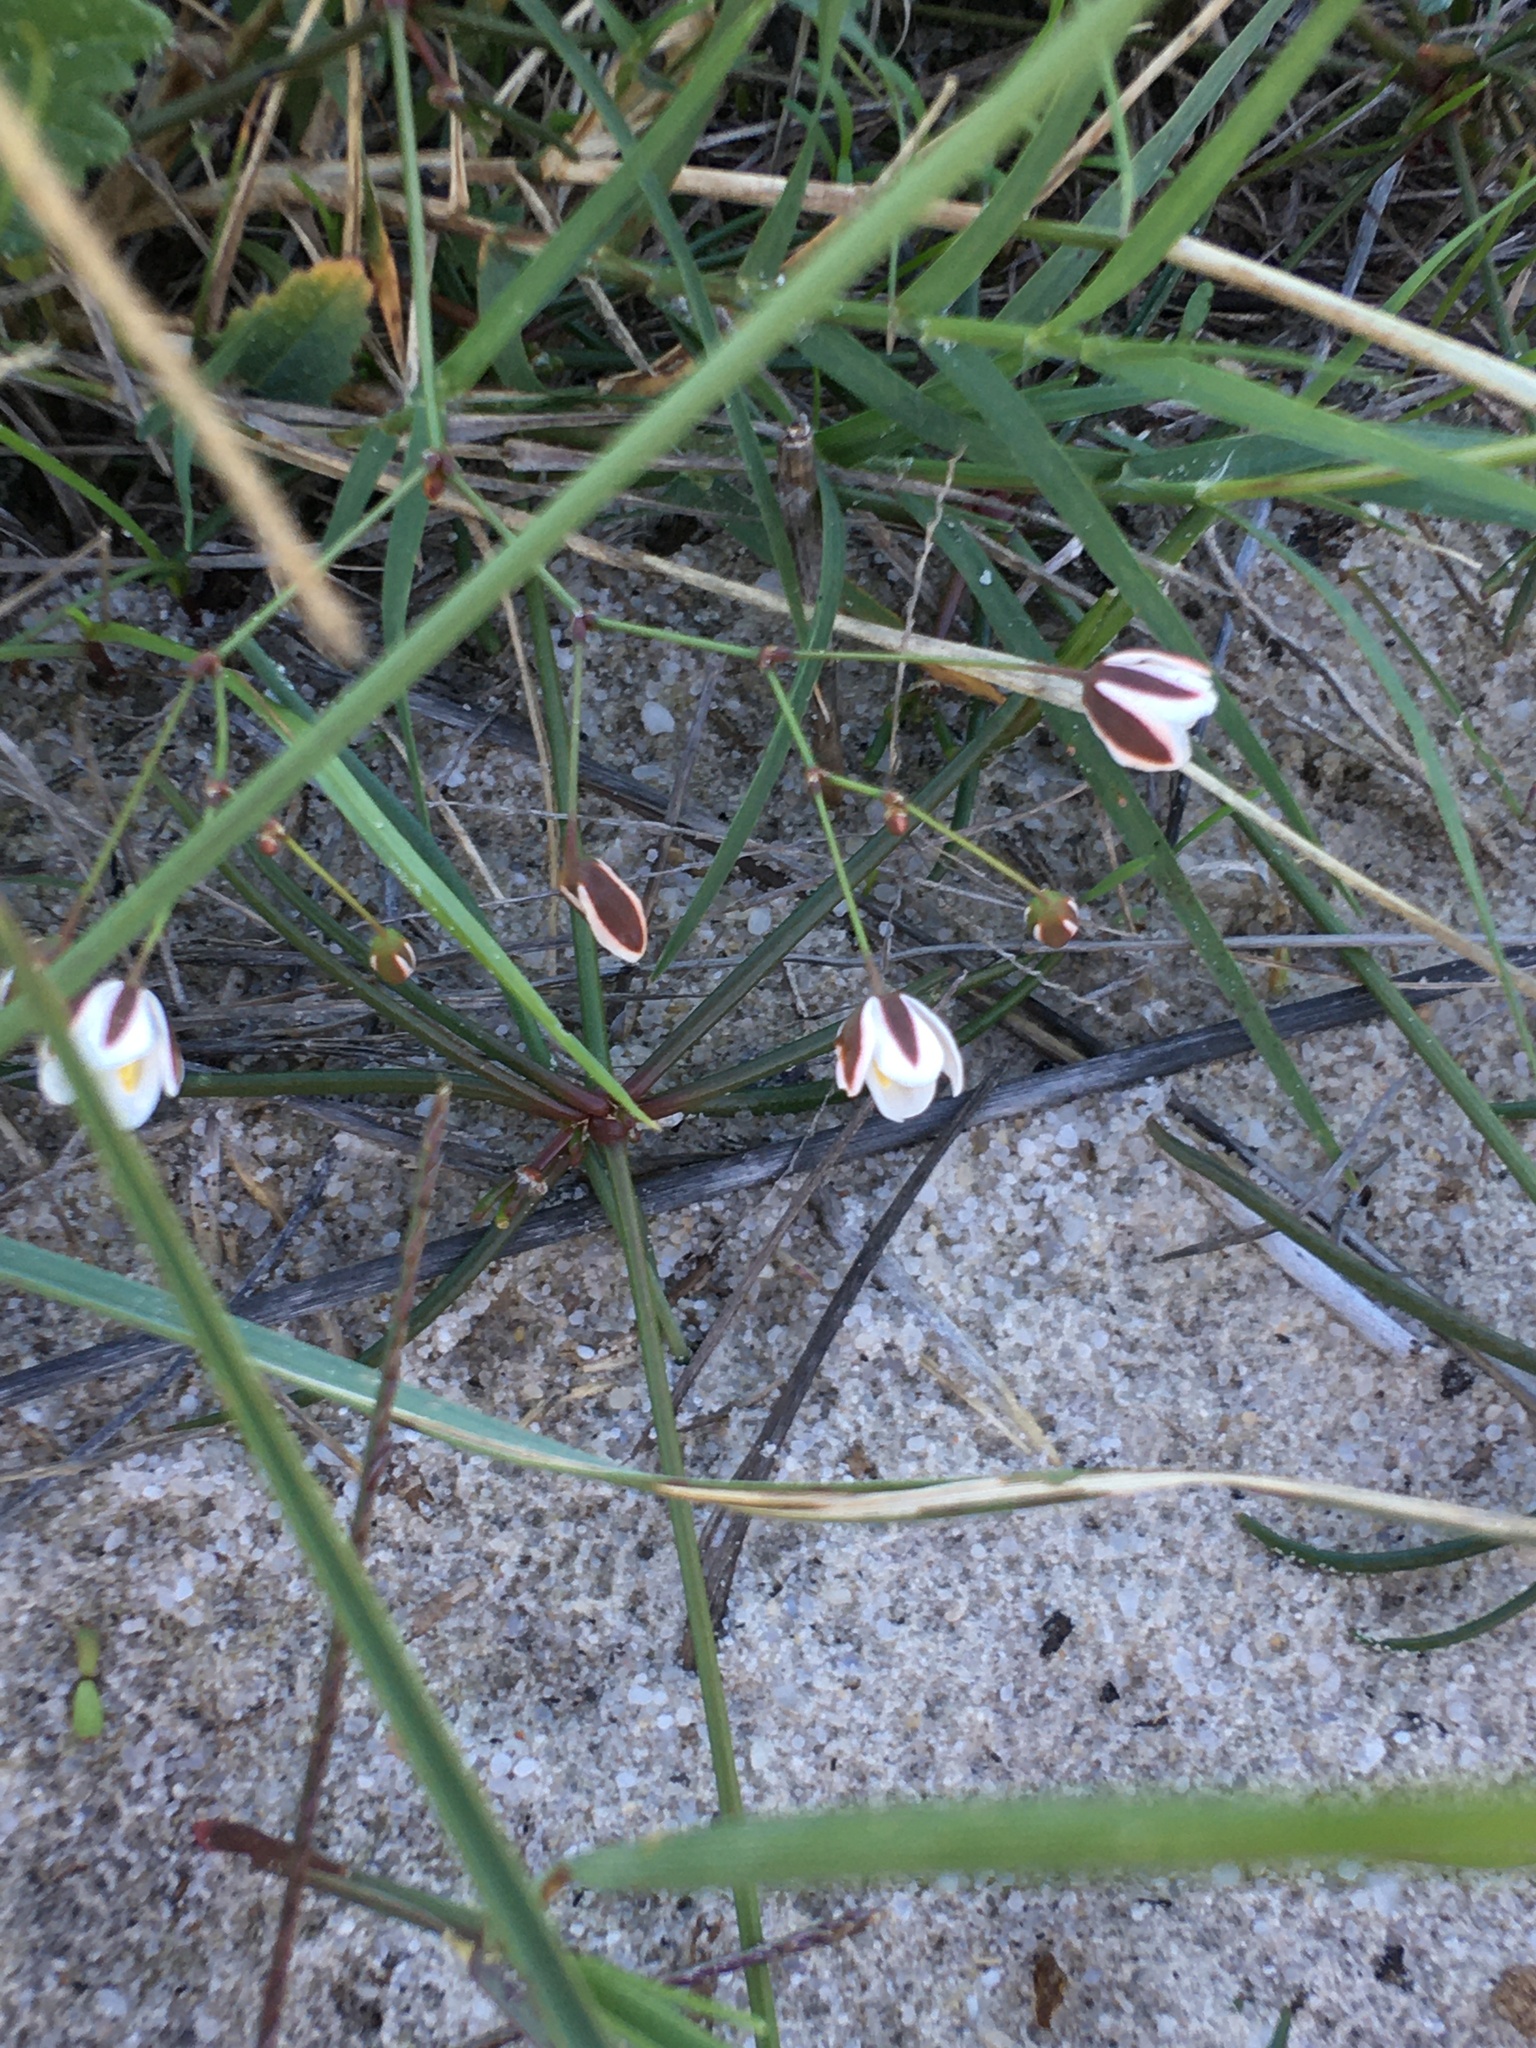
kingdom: Plantae
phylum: Tracheophyta
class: Magnoliopsida
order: Caryophyllales
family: Molluginaceae
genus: Pharnaceum
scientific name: Pharnaceum lineare
